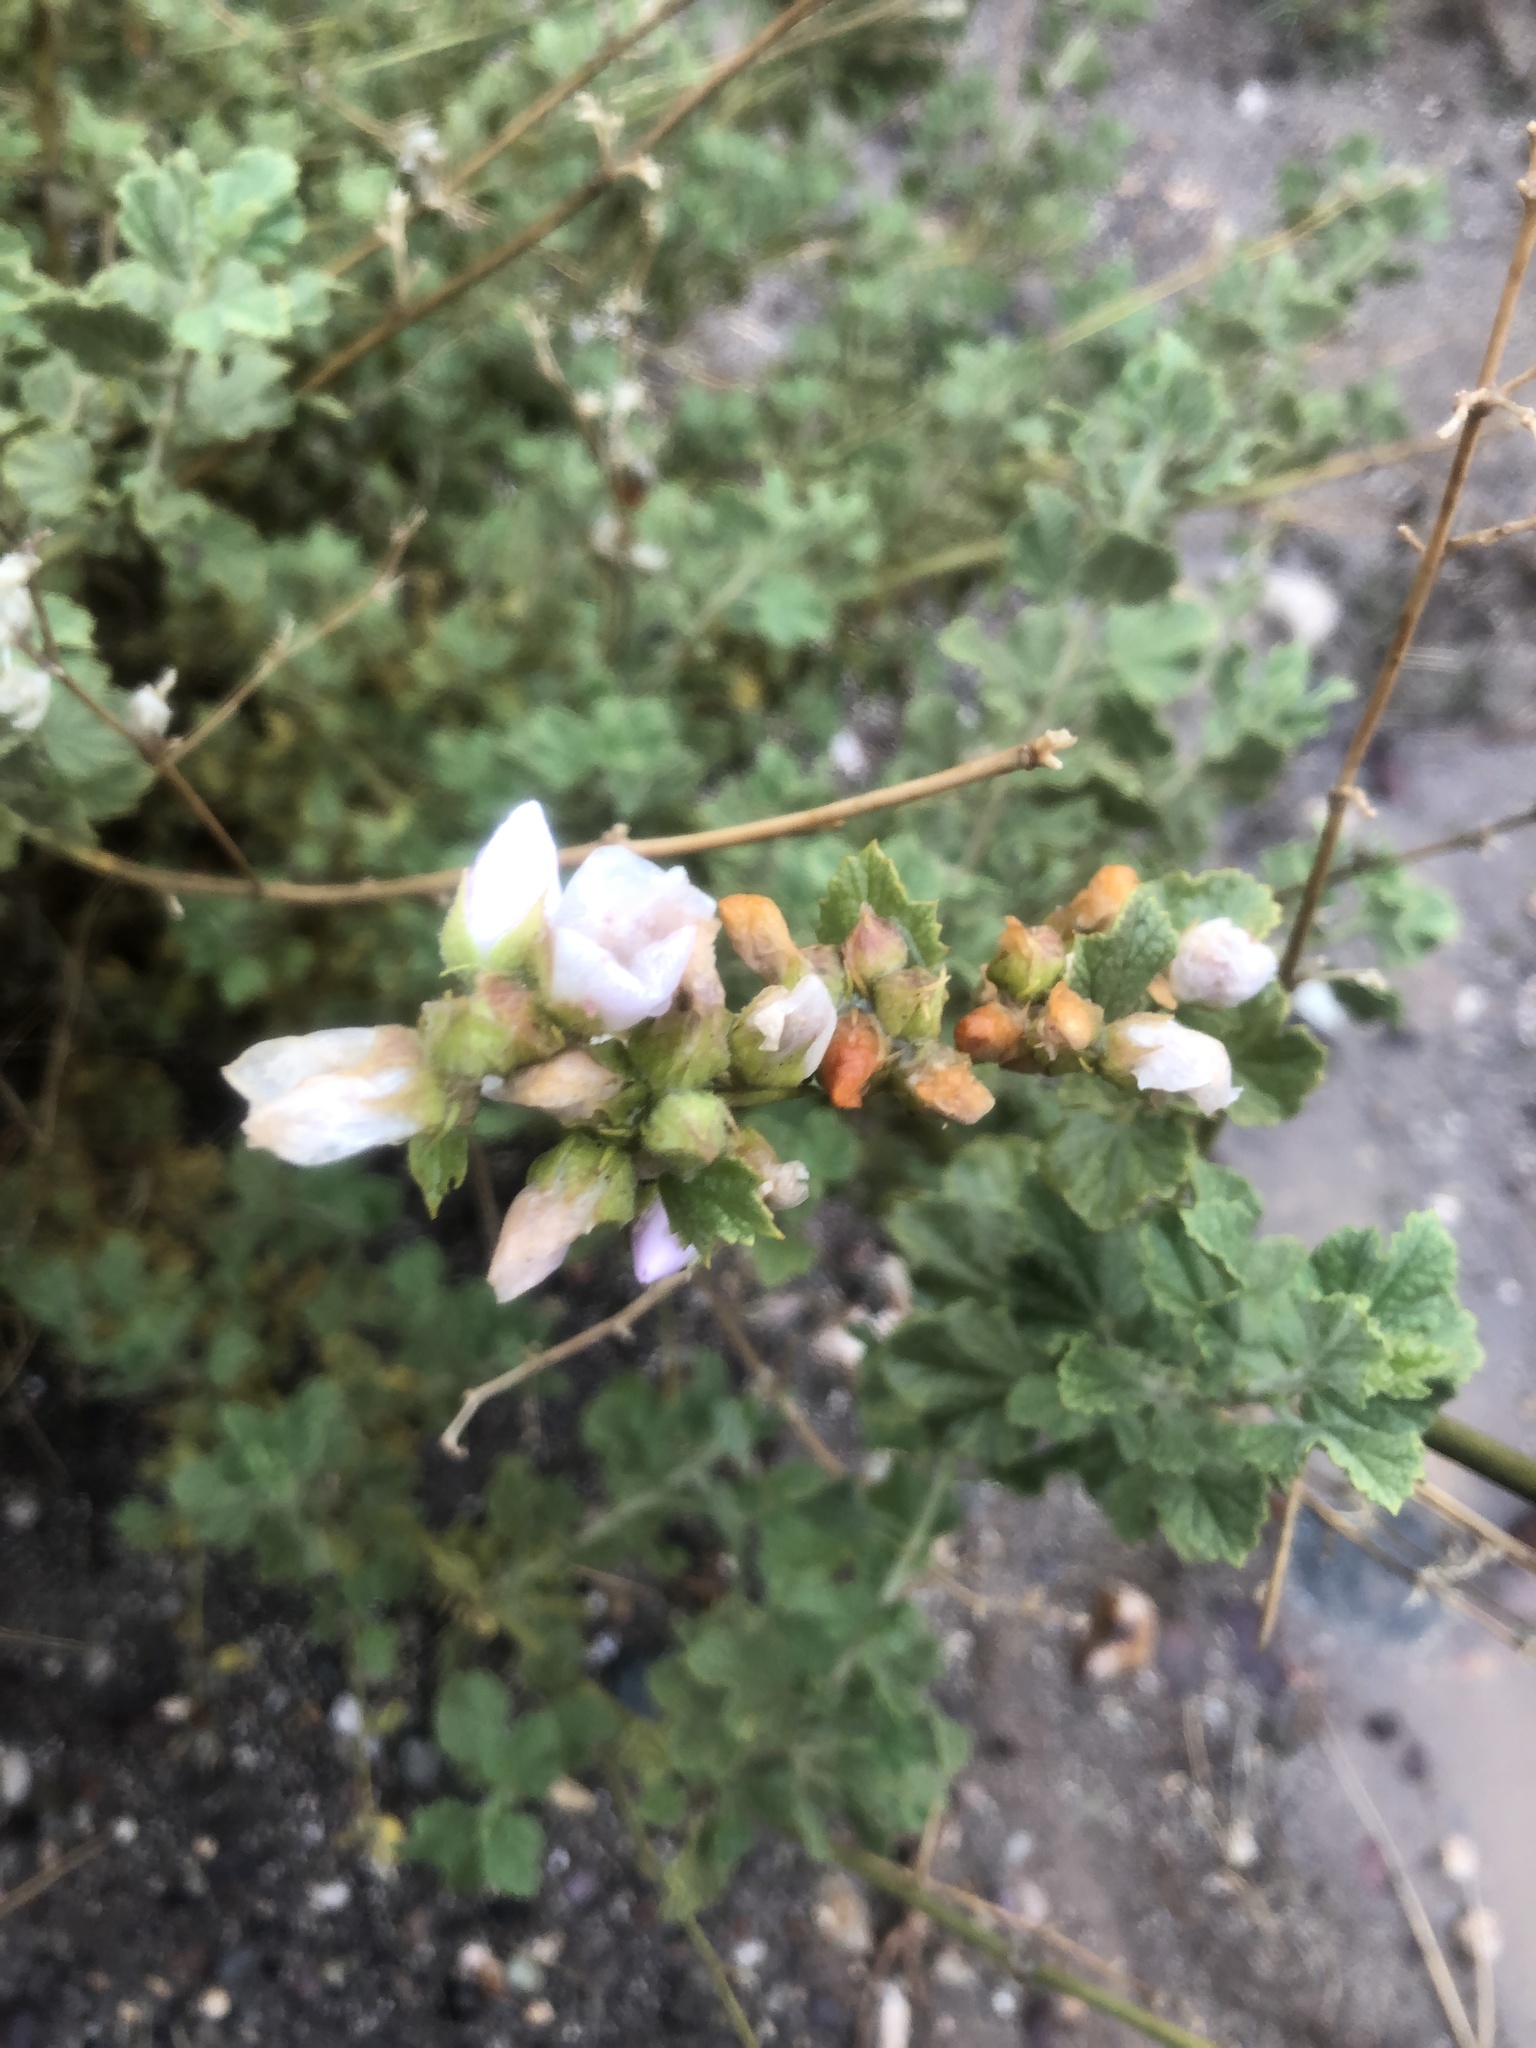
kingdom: Plantae
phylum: Tracheophyta
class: Magnoliopsida
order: Malvales
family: Malvaceae
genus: Malacothamnus
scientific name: Malacothamnus marrubioides
